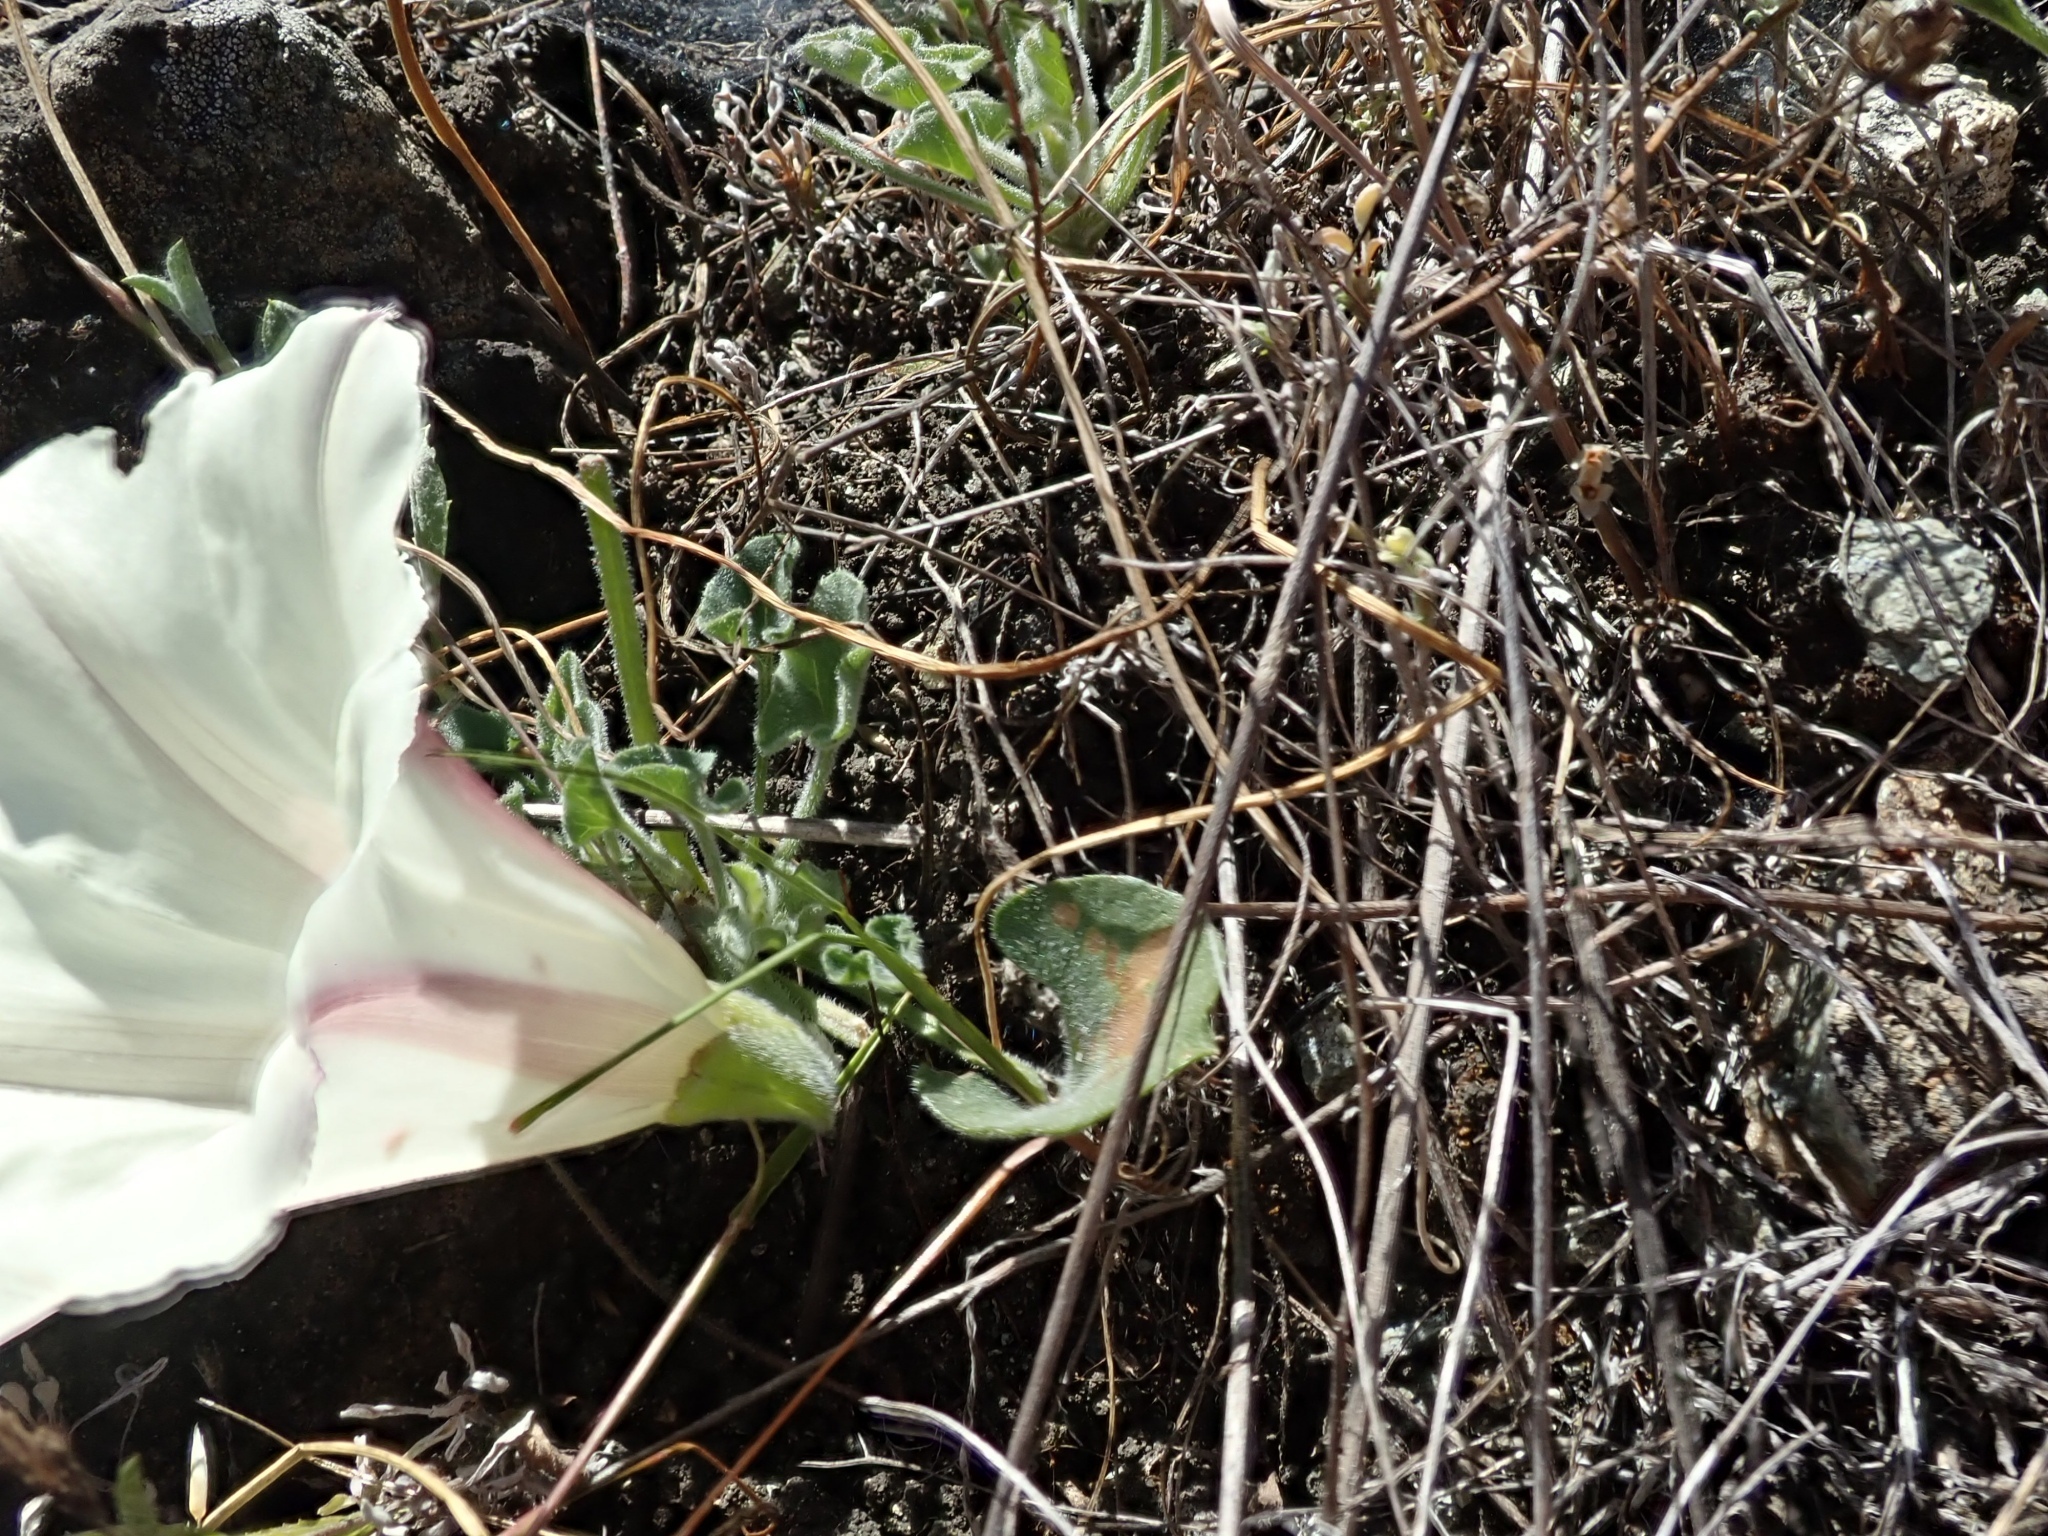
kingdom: Plantae
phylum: Tracheophyta
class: Magnoliopsida
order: Solanales
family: Convolvulaceae
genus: Calystegia
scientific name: Calystegia collina
